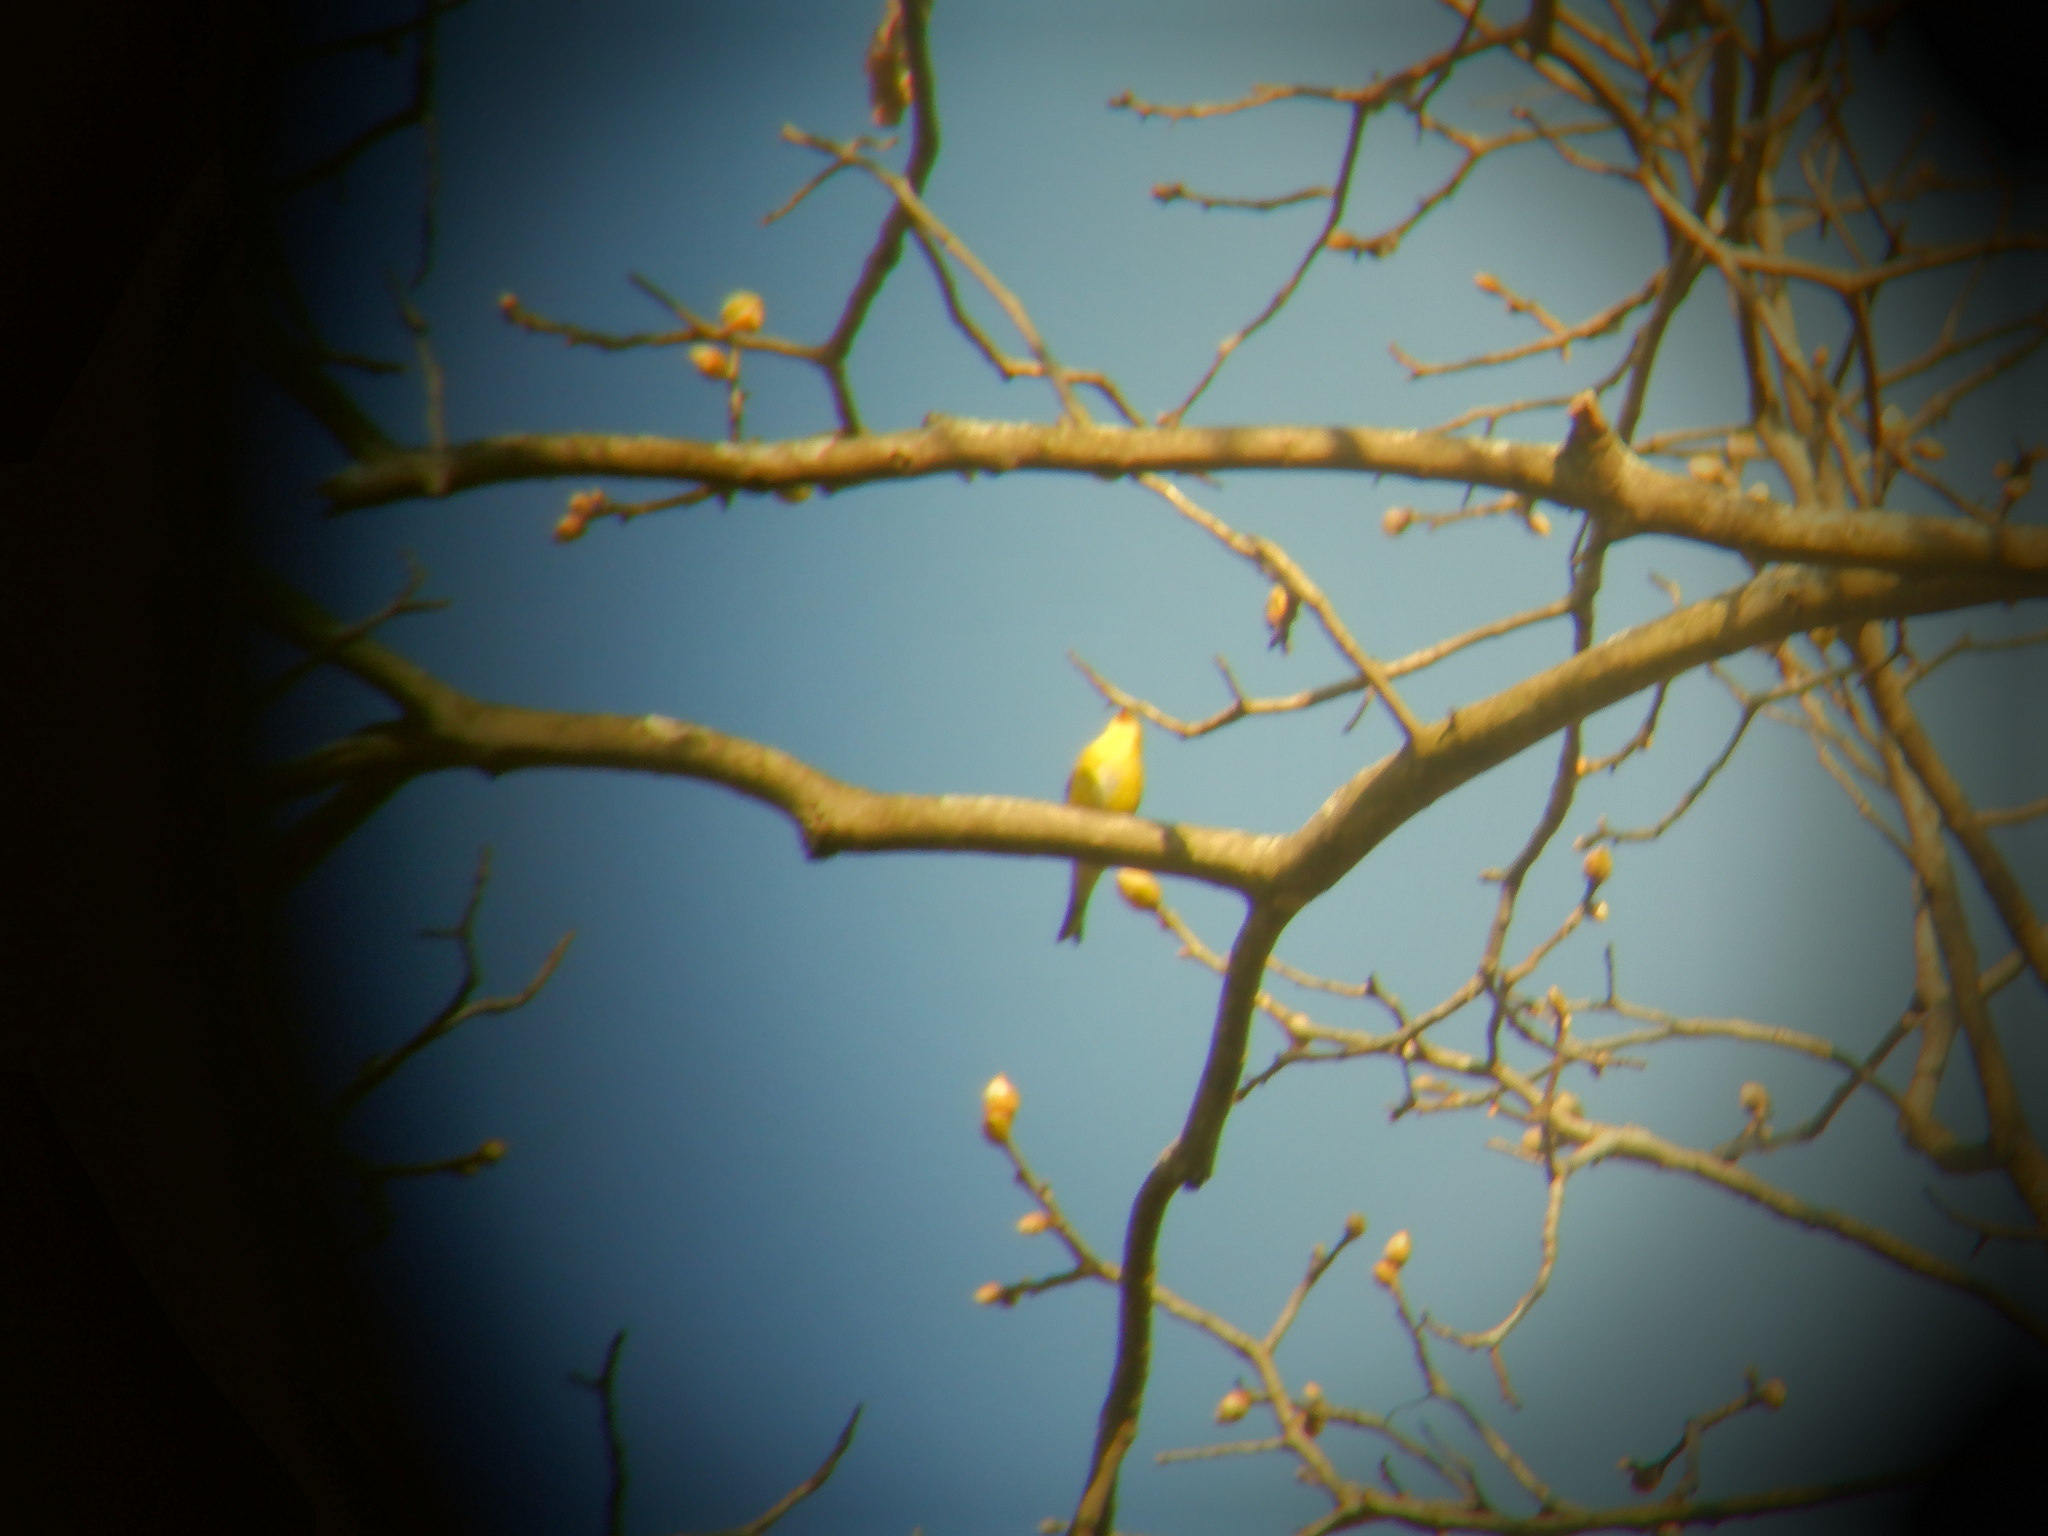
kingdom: Animalia
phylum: Chordata
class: Aves
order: Passeriformes
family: Fringillidae
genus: Spinus
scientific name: Spinus tristis
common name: American goldfinch
